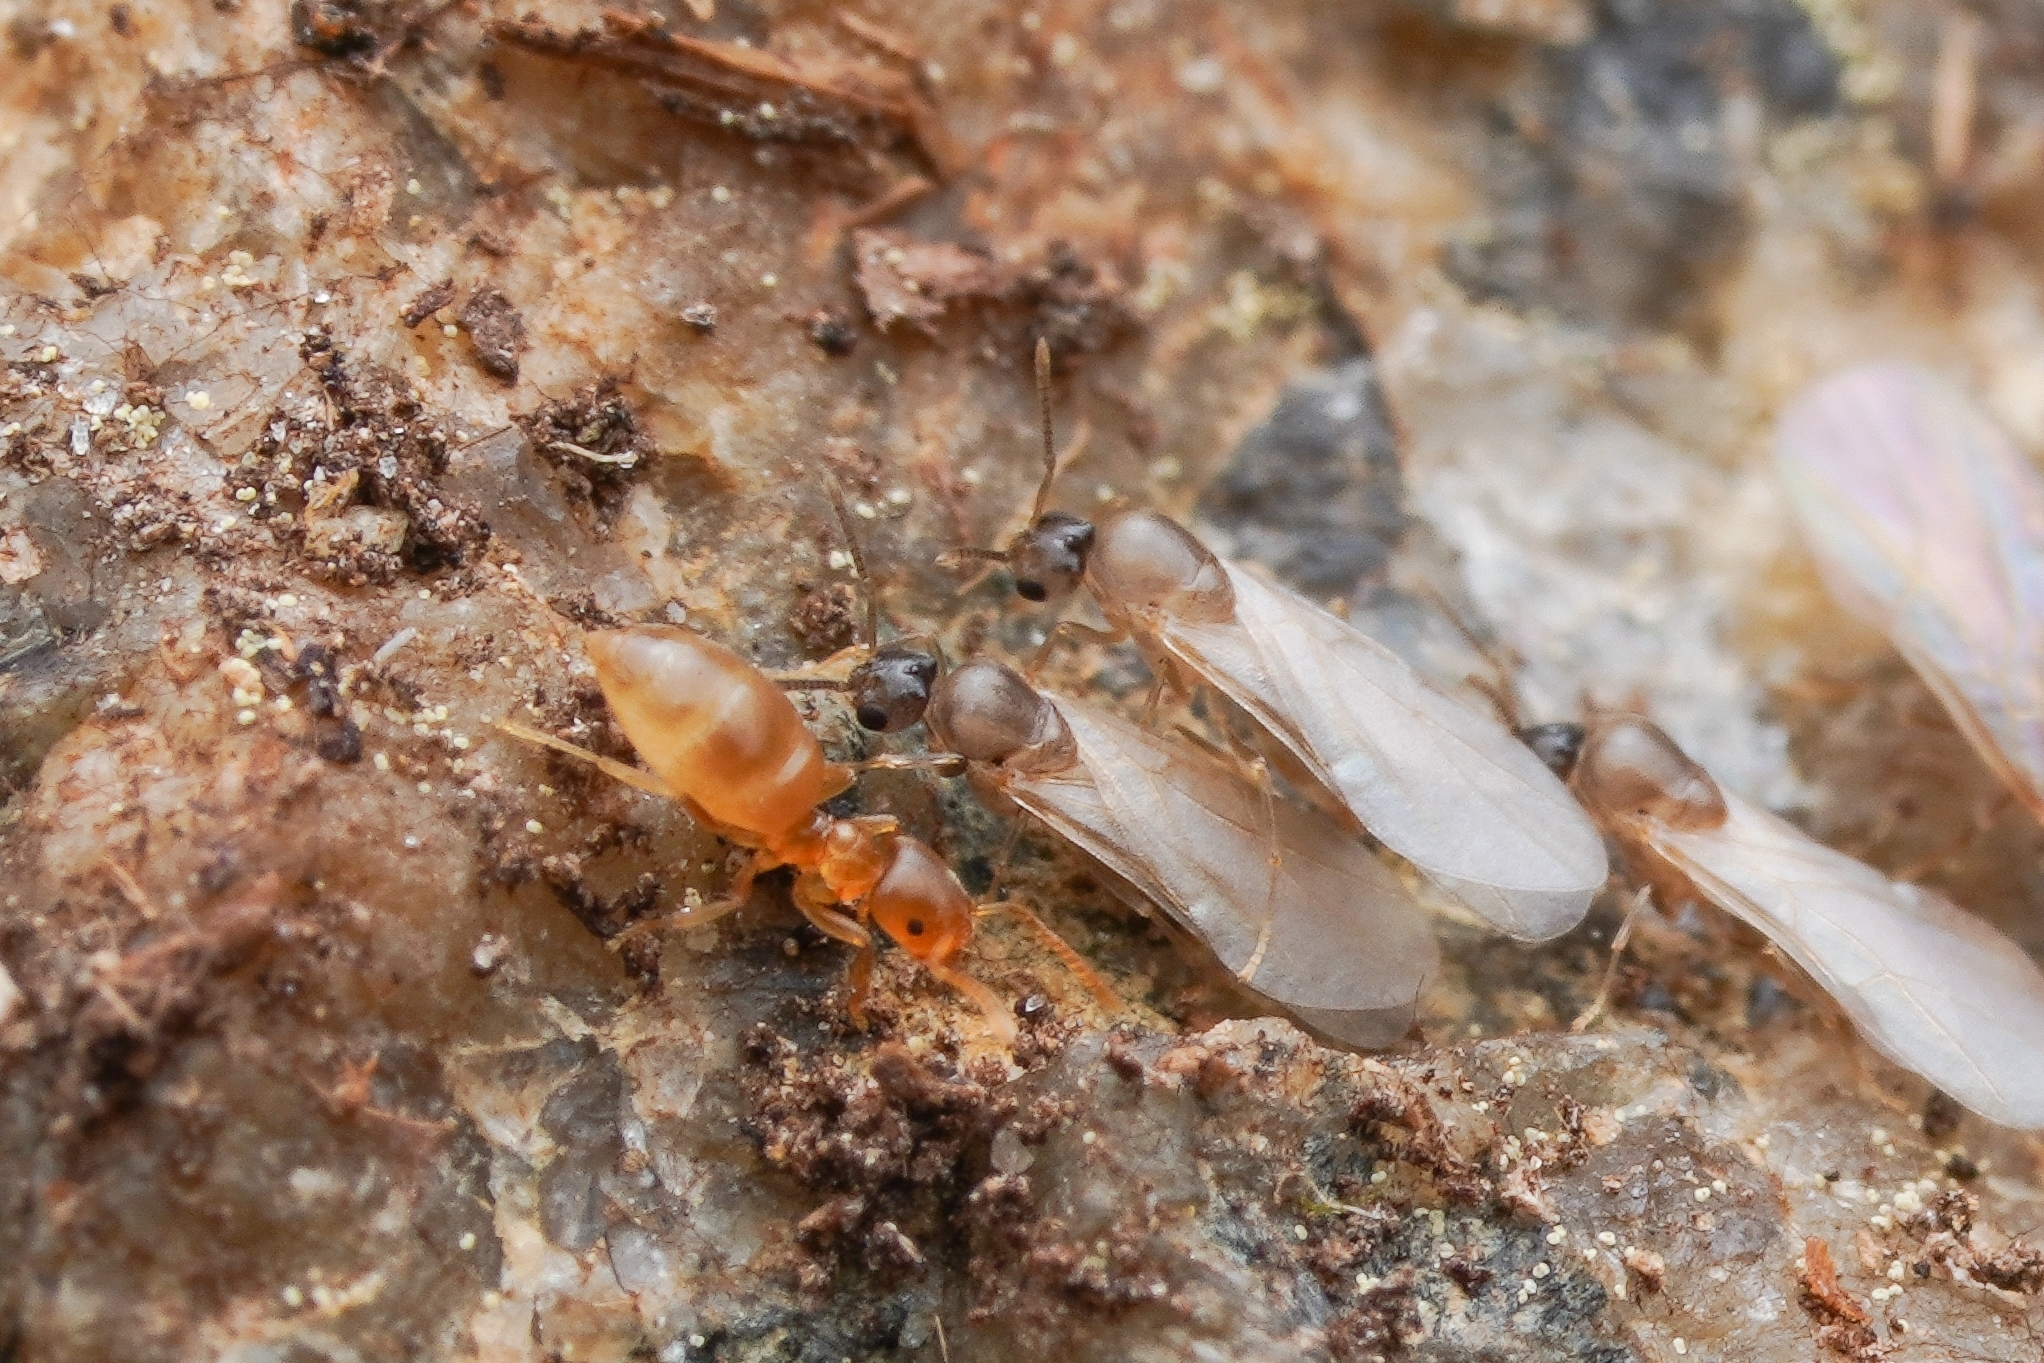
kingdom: Animalia
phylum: Arthropoda
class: Insecta
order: Hymenoptera
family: Formicidae
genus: Brachymyrmex
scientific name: Brachymyrmex depilis
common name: Hairless rover ant
